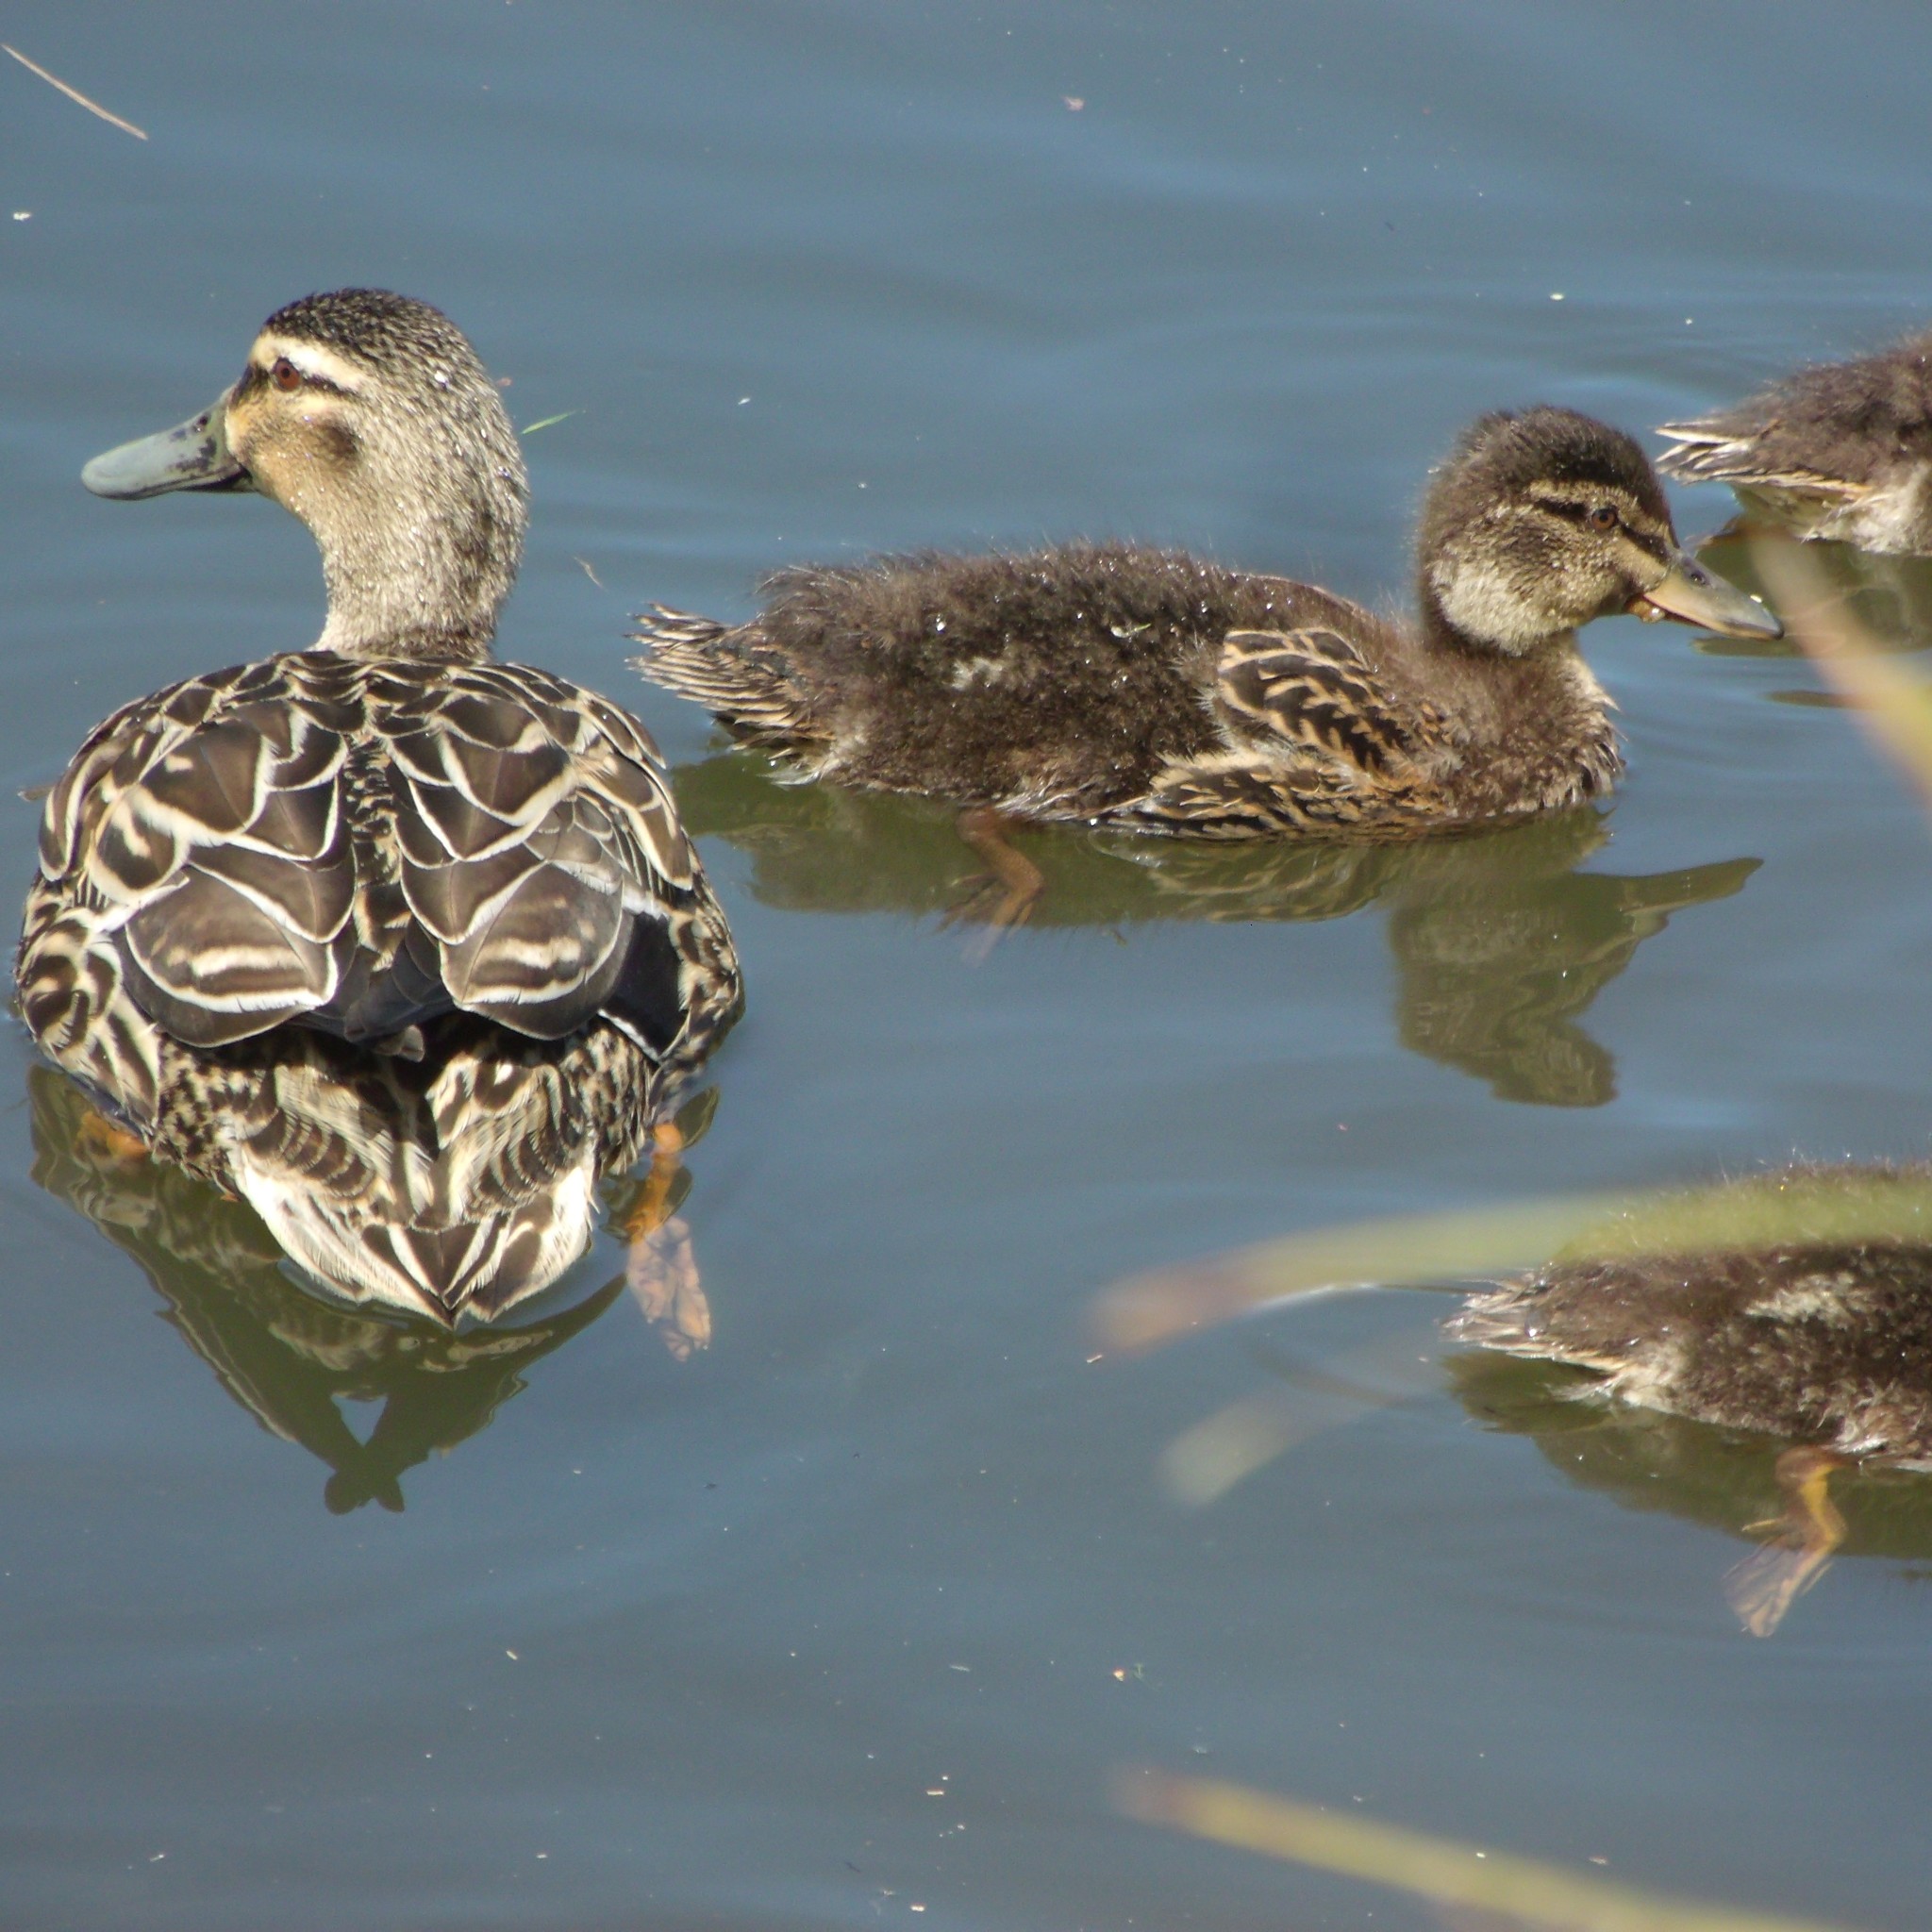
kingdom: Animalia
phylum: Chordata
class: Aves
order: Anseriformes
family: Anatidae
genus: Anas
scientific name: Anas
